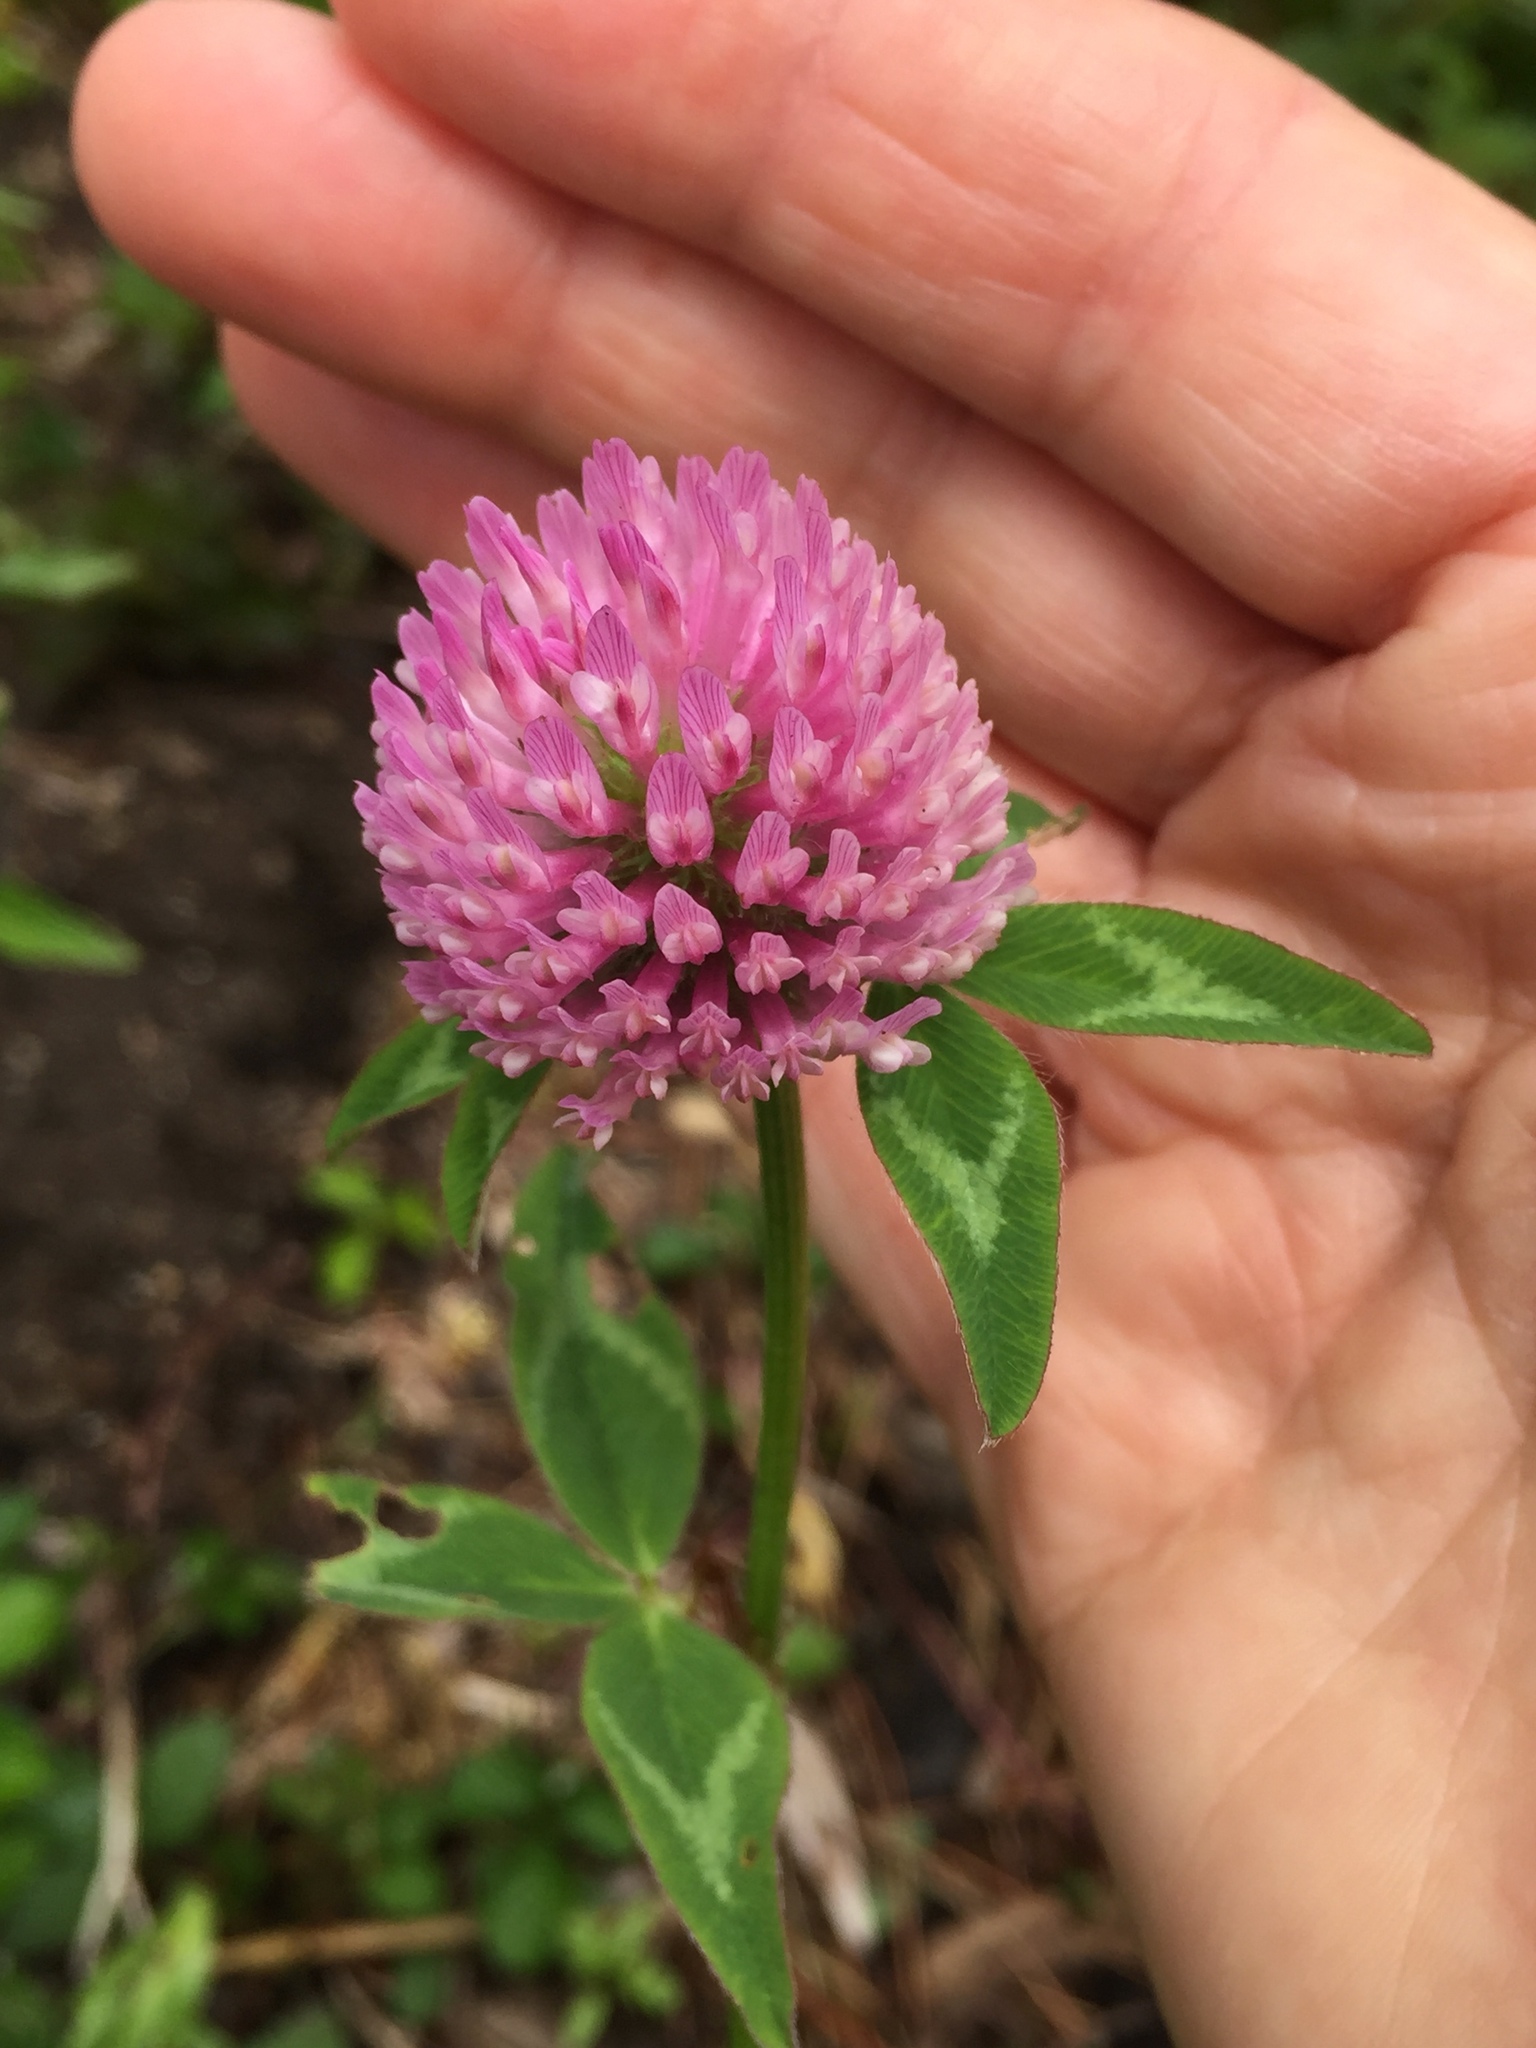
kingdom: Plantae
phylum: Tracheophyta
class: Magnoliopsida
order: Fabales
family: Fabaceae
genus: Trifolium
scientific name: Trifolium pratense
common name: Red clover
